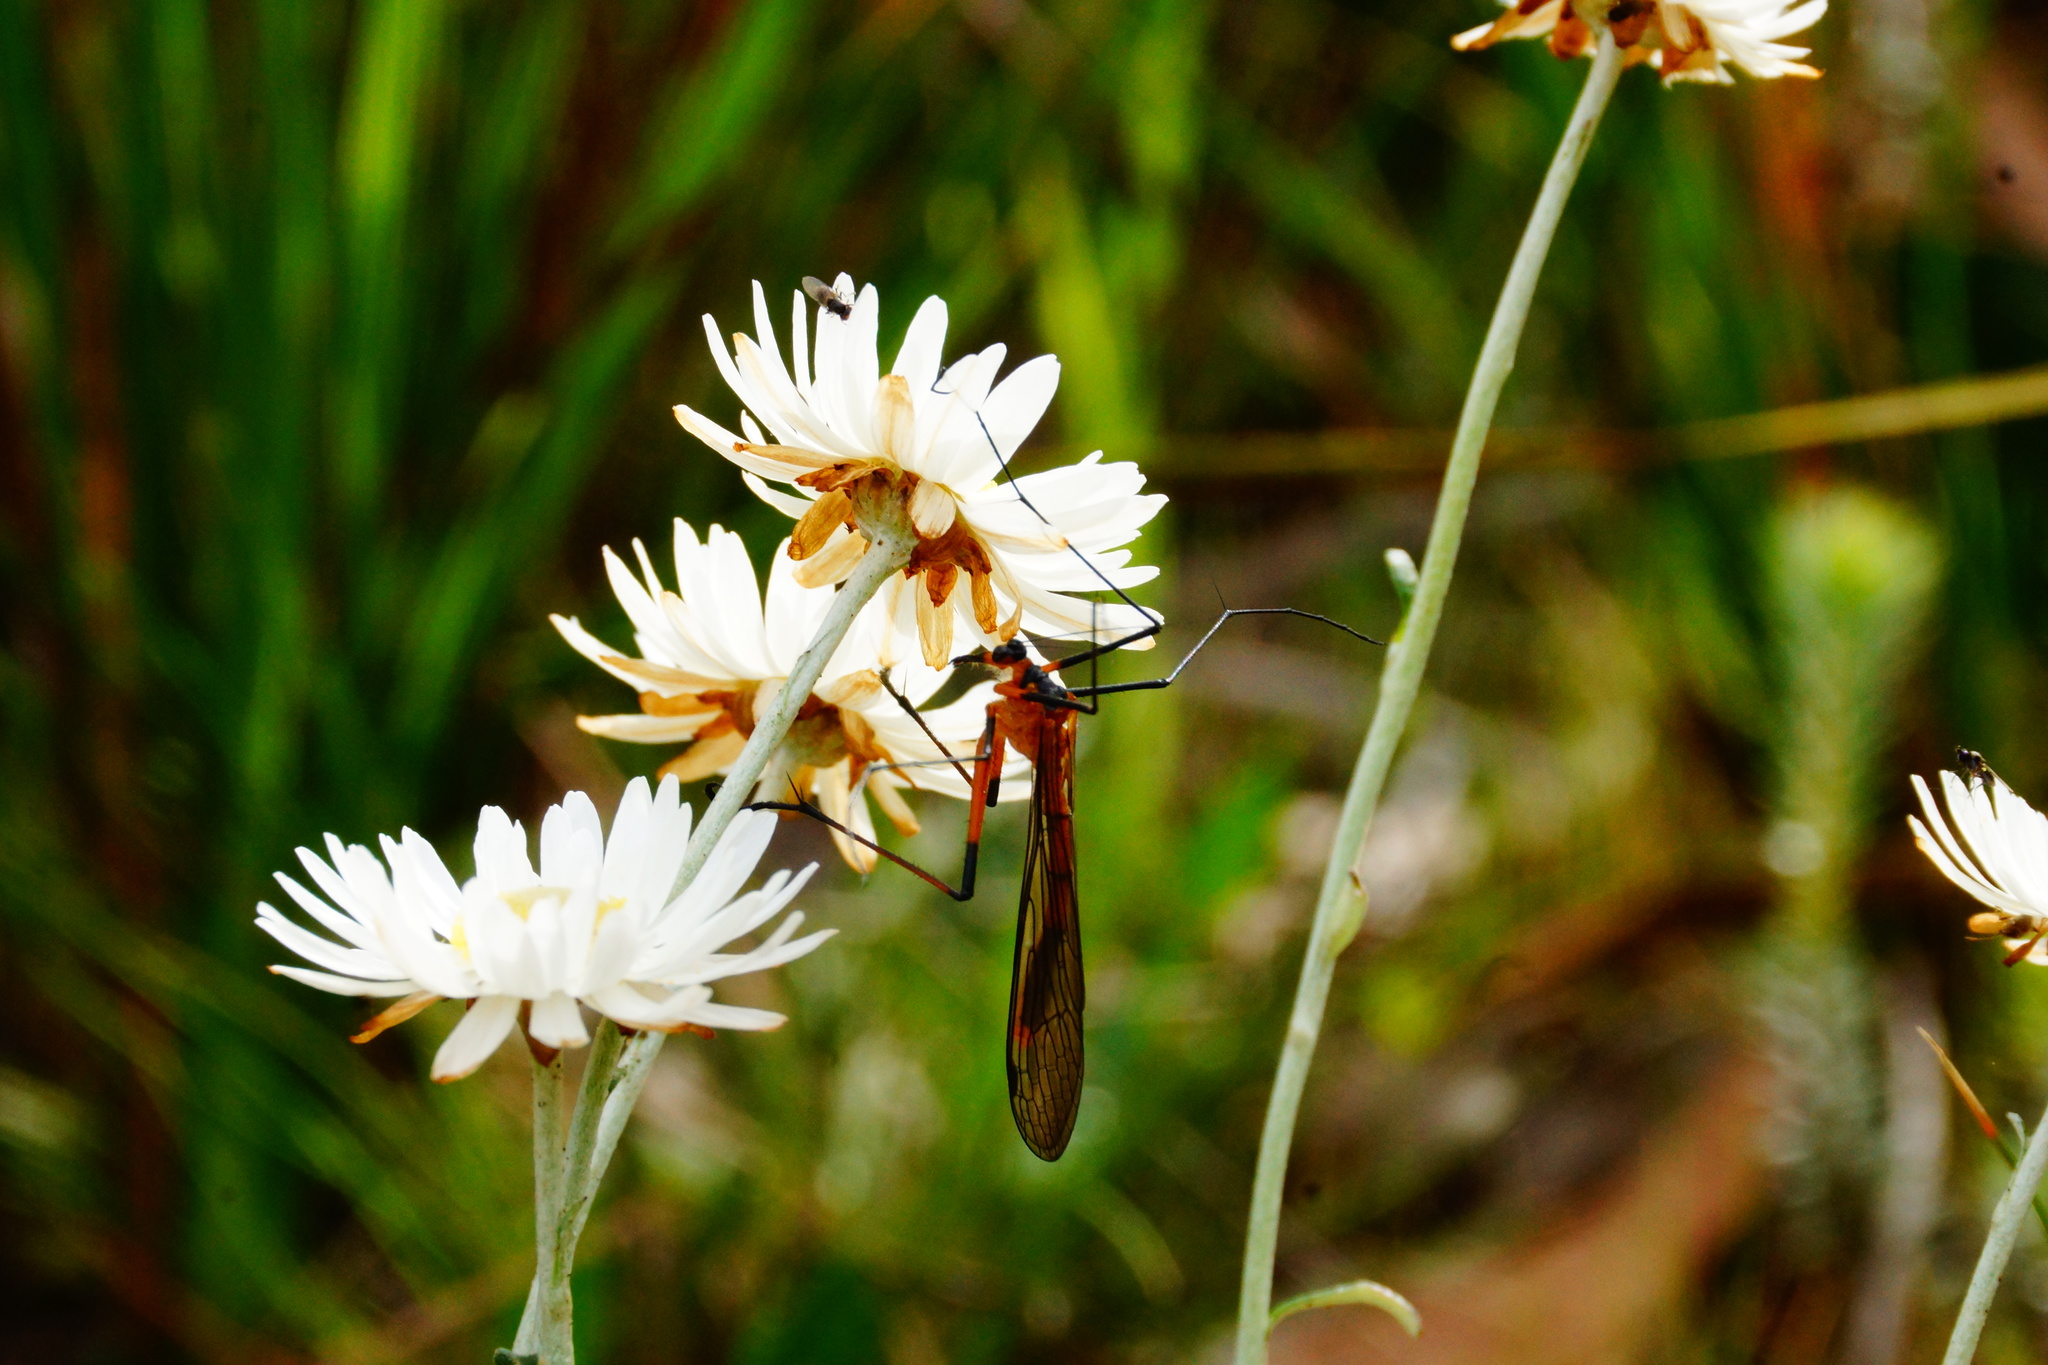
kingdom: Animalia
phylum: Arthropoda
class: Insecta
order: Mecoptera
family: Bittacidae
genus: Harpobittacus
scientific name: Harpobittacus australis
